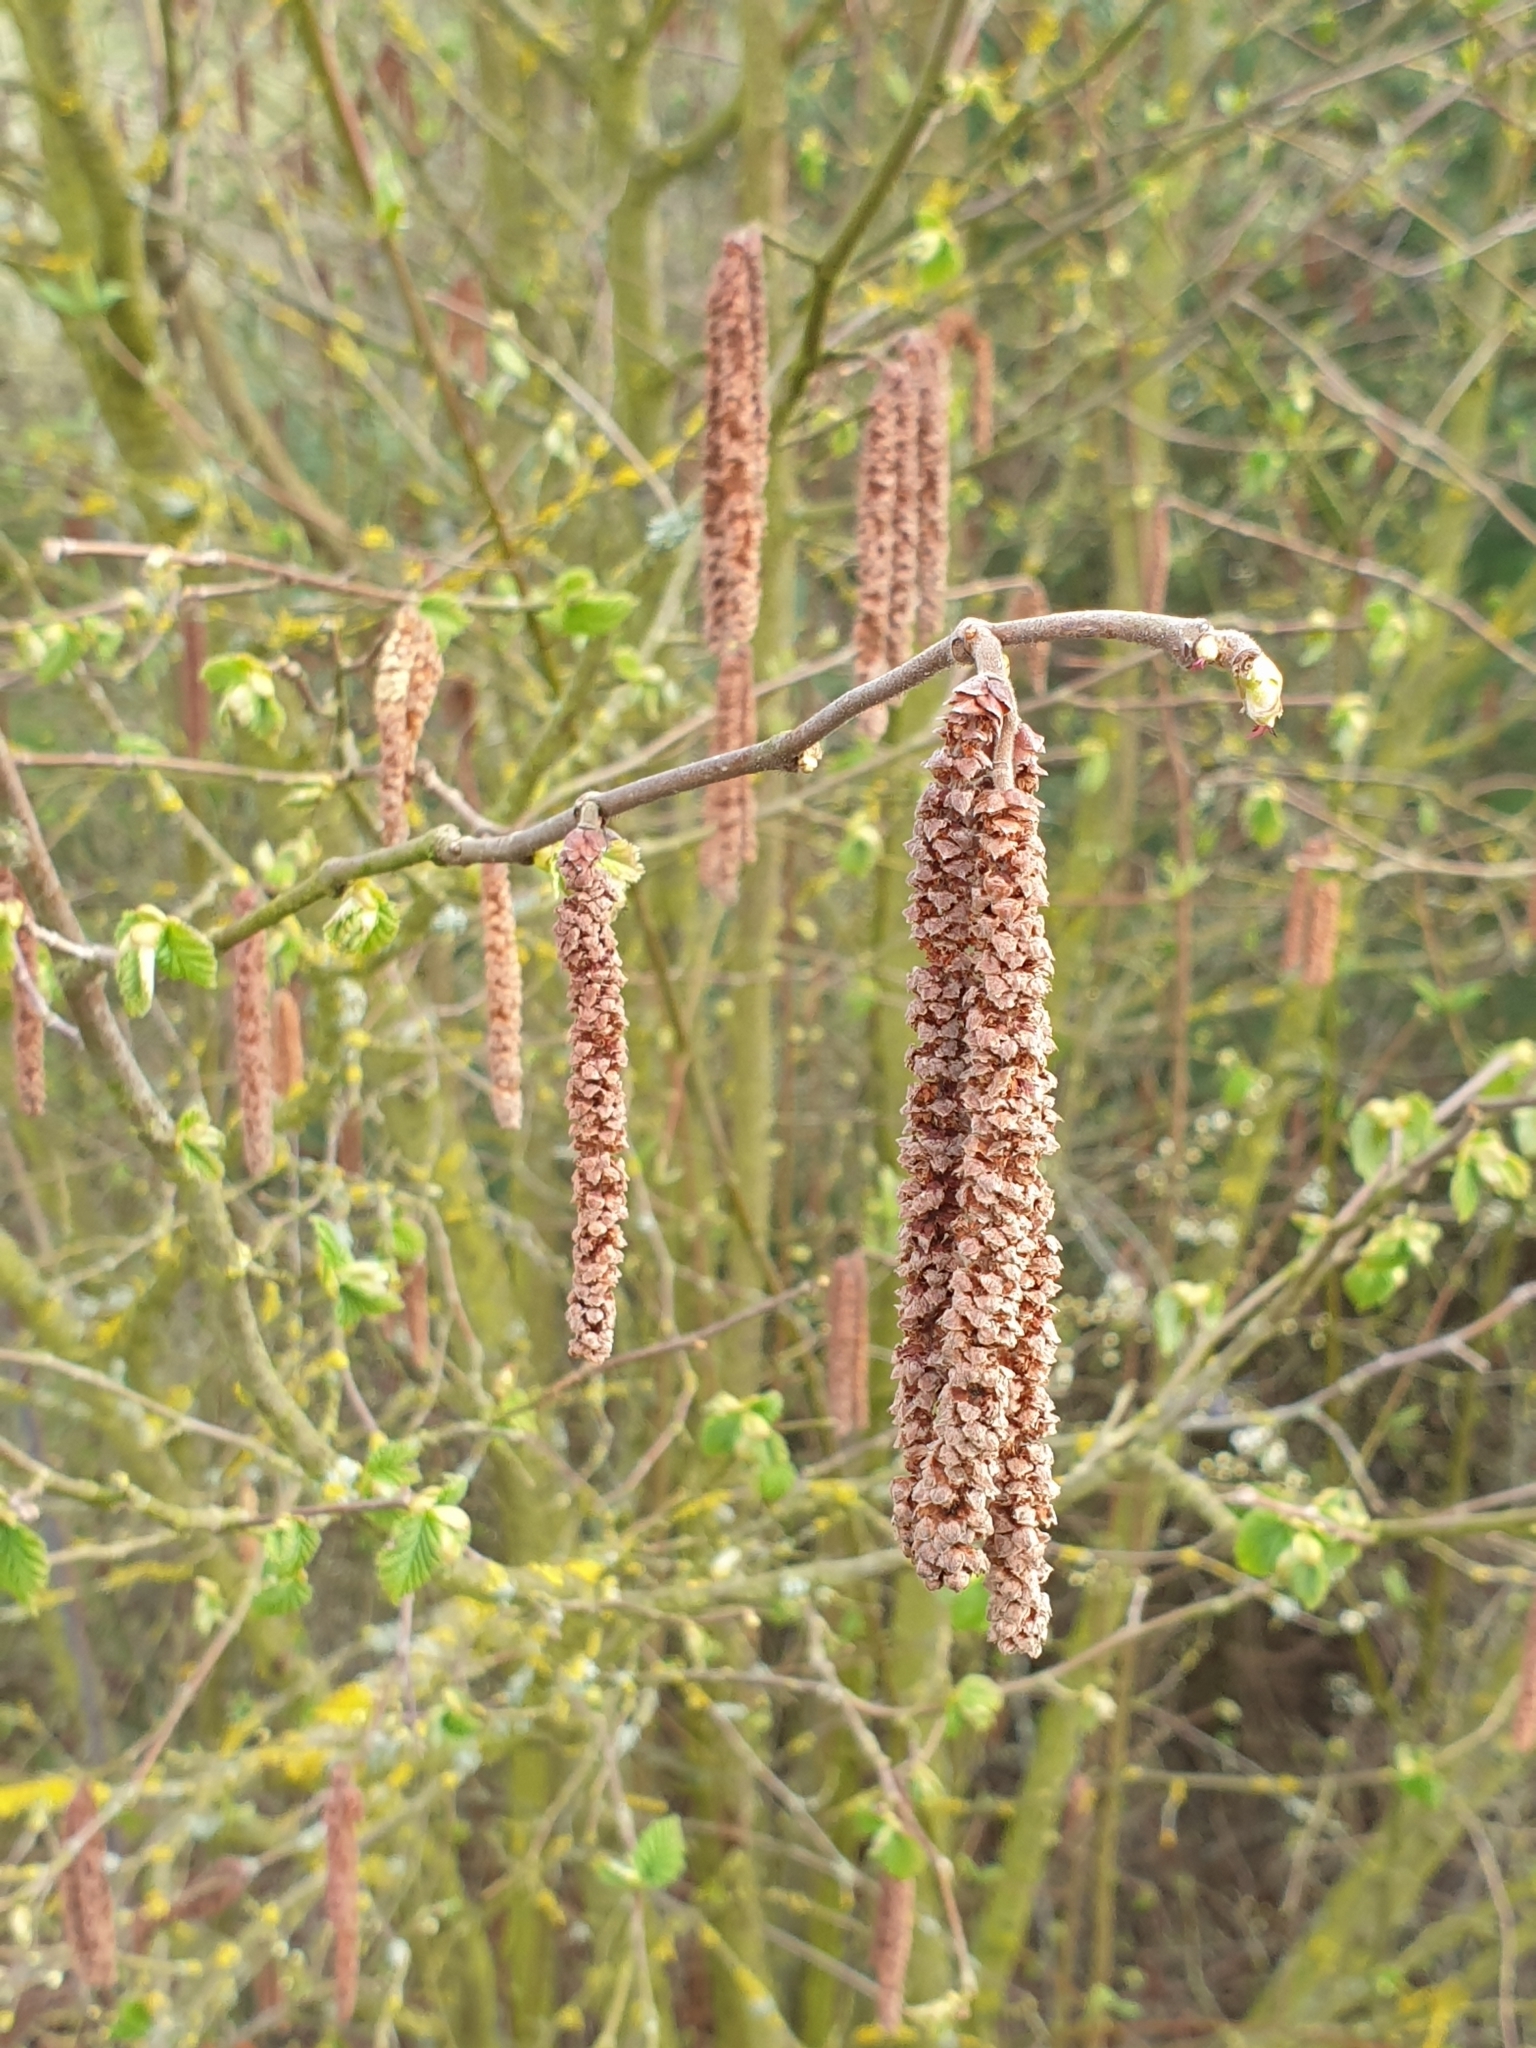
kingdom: Plantae
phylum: Tracheophyta
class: Magnoliopsida
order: Fagales
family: Betulaceae
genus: Corylus
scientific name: Corylus avellana
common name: European hazel
